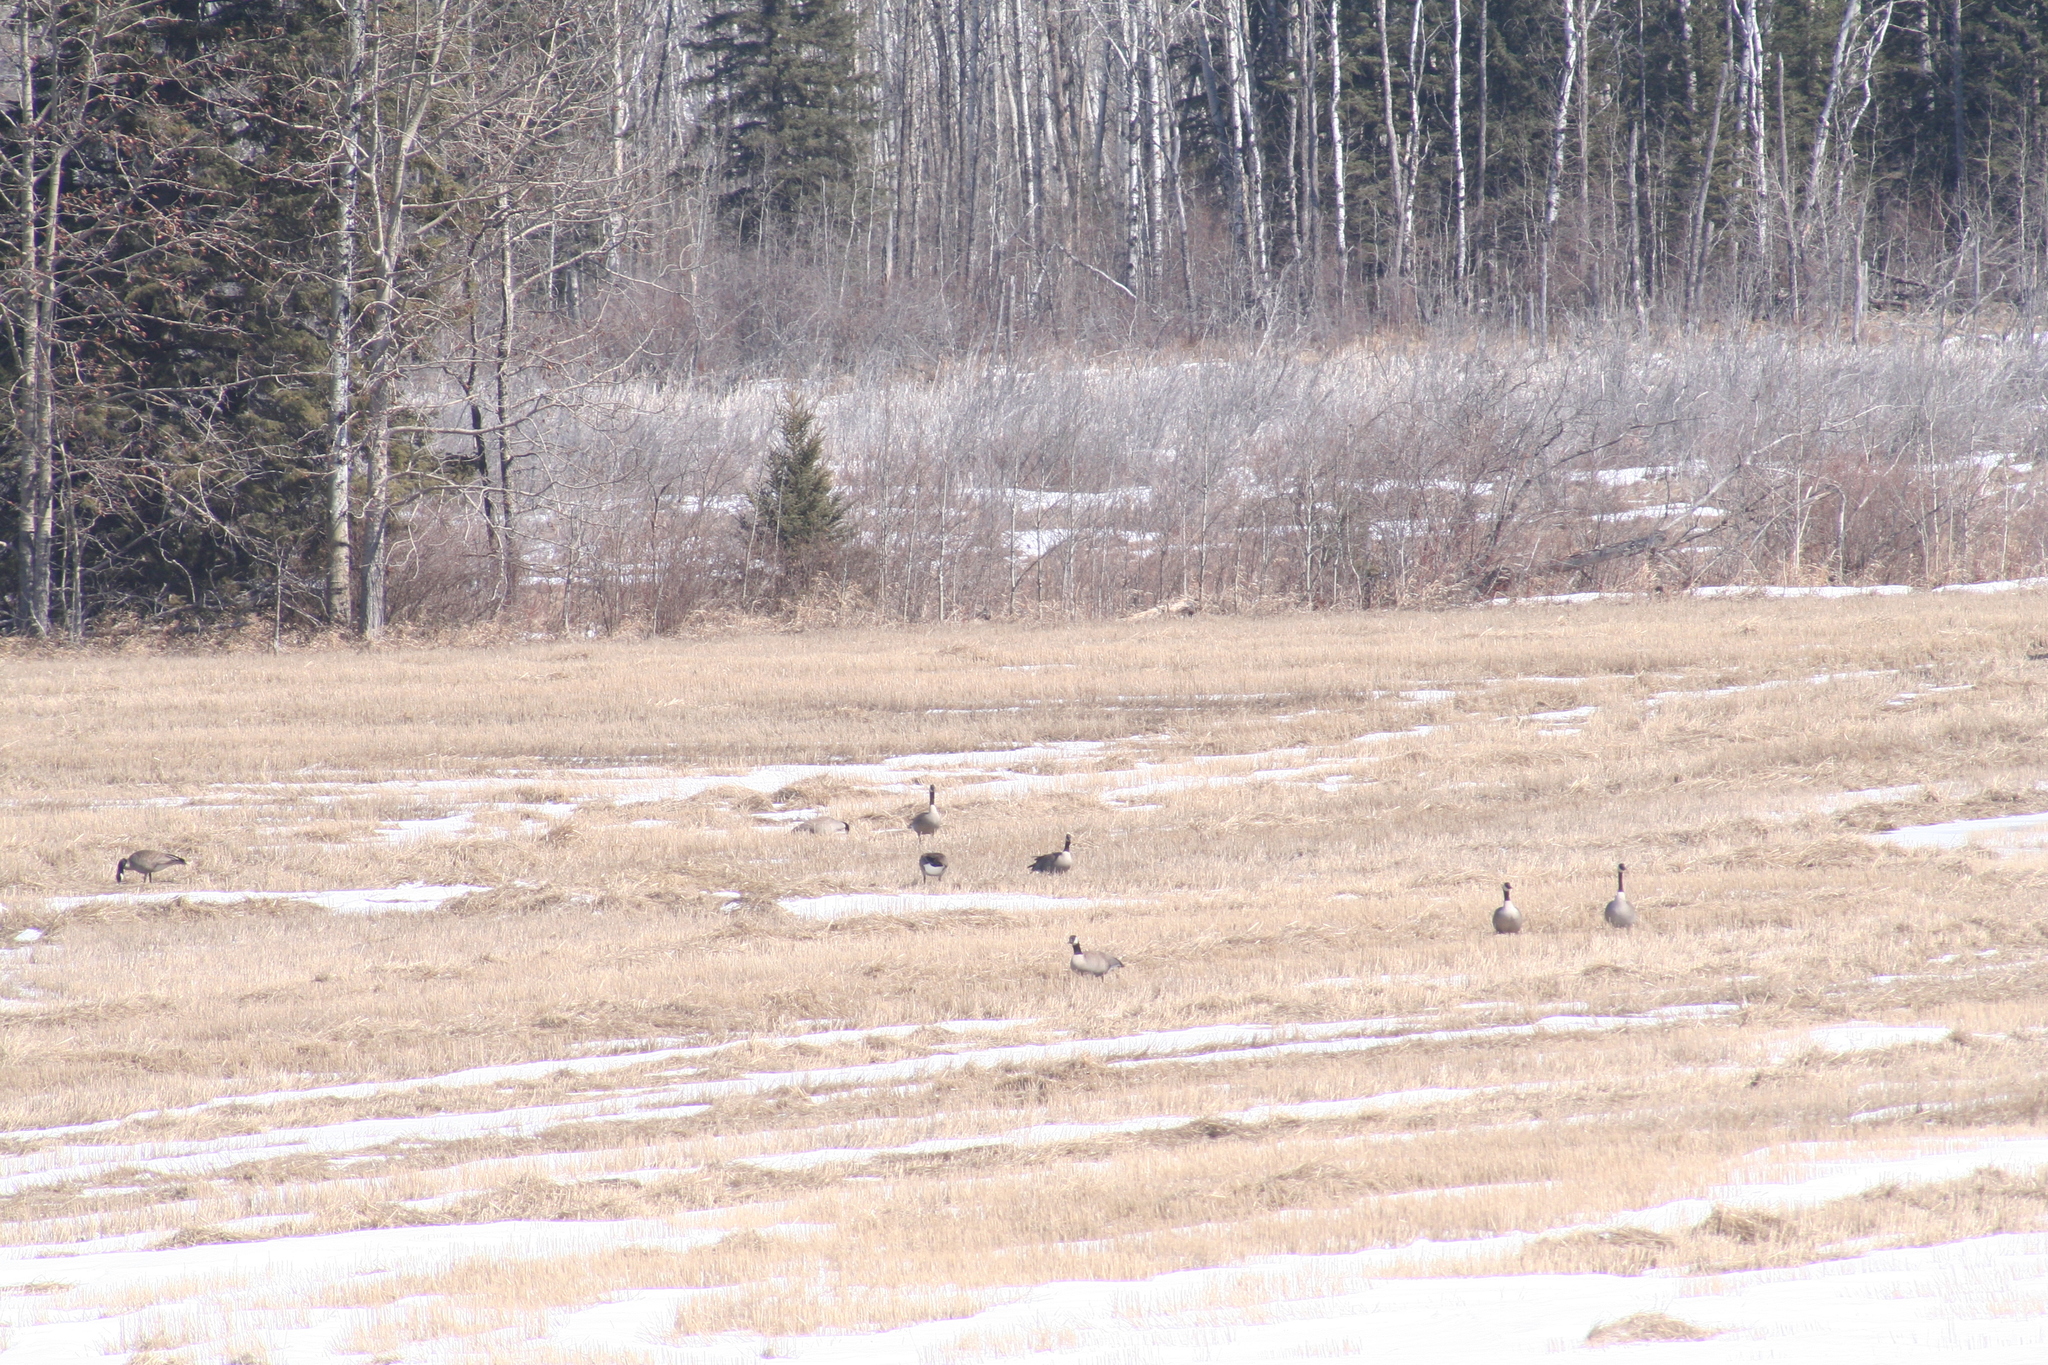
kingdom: Animalia
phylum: Chordata
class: Aves
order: Anseriformes
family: Anatidae
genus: Branta
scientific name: Branta canadensis
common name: Canada goose
